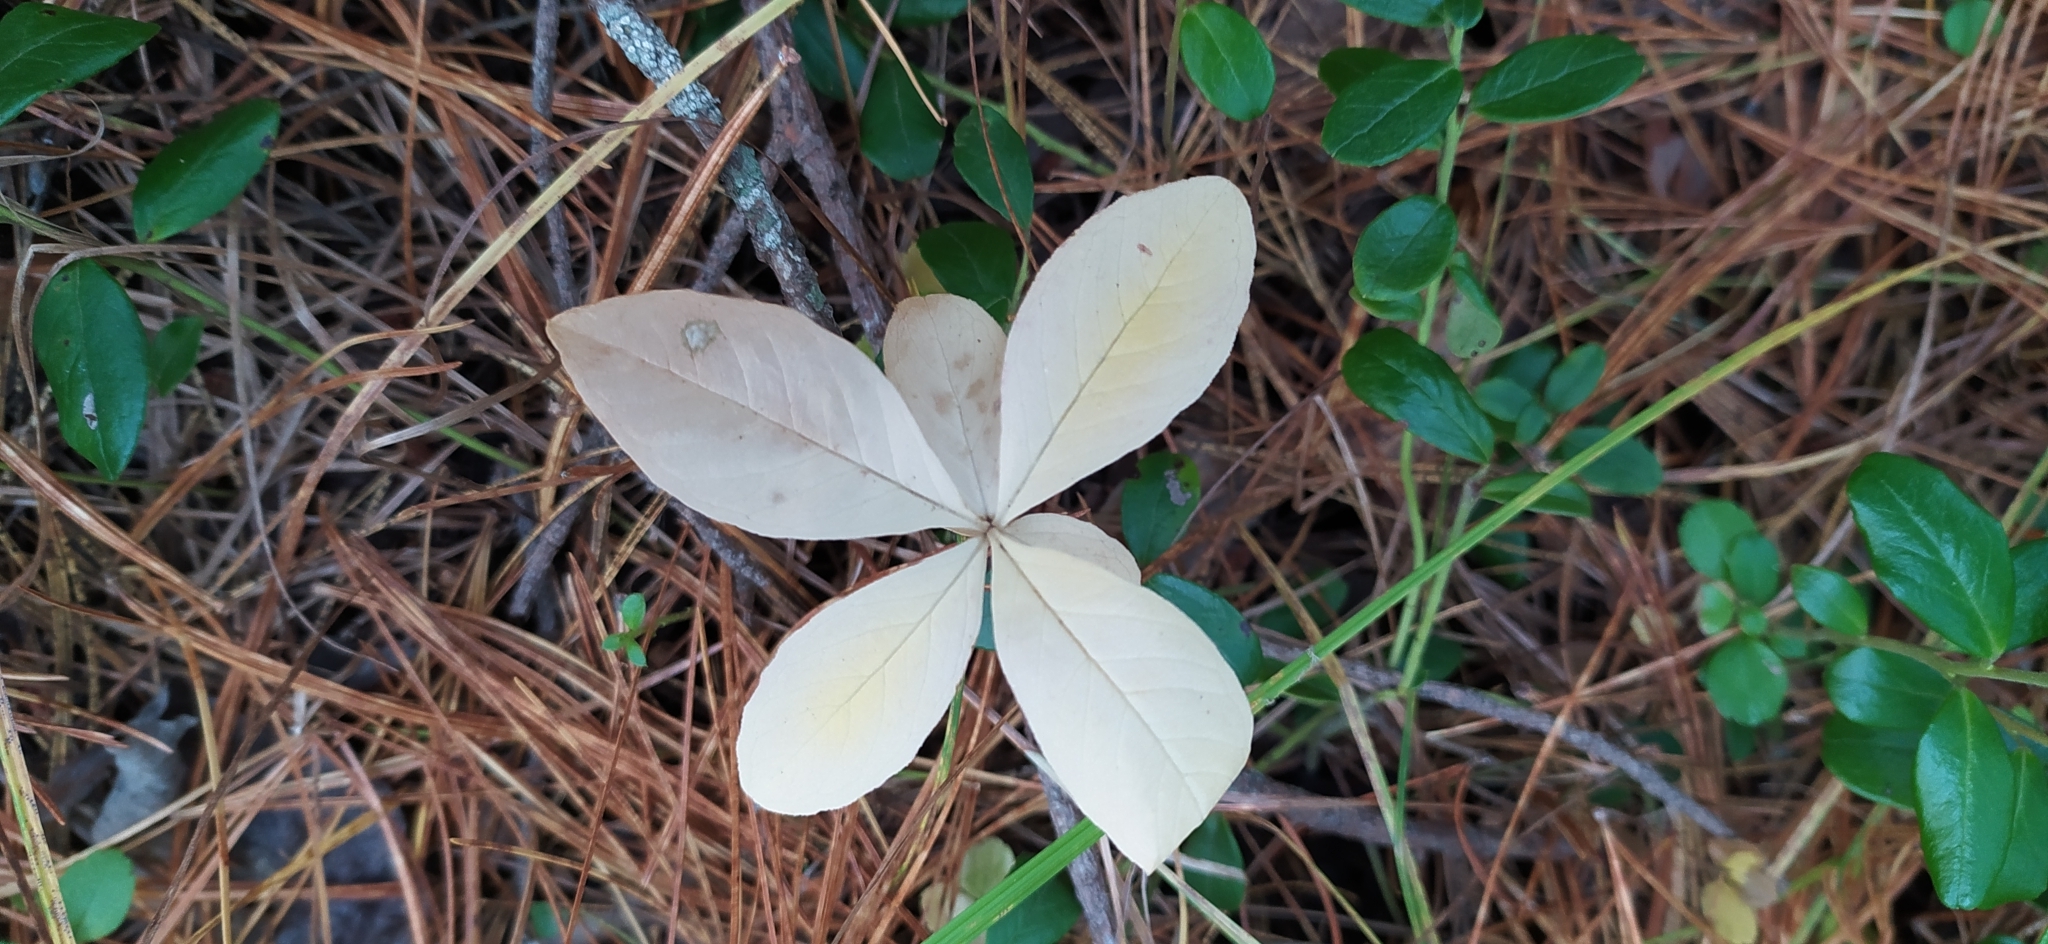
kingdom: Plantae
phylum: Tracheophyta
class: Magnoliopsida
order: Ericales
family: Primulaceae
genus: Lysimachia
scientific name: Lysimachia europaea
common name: Arctic starflower
